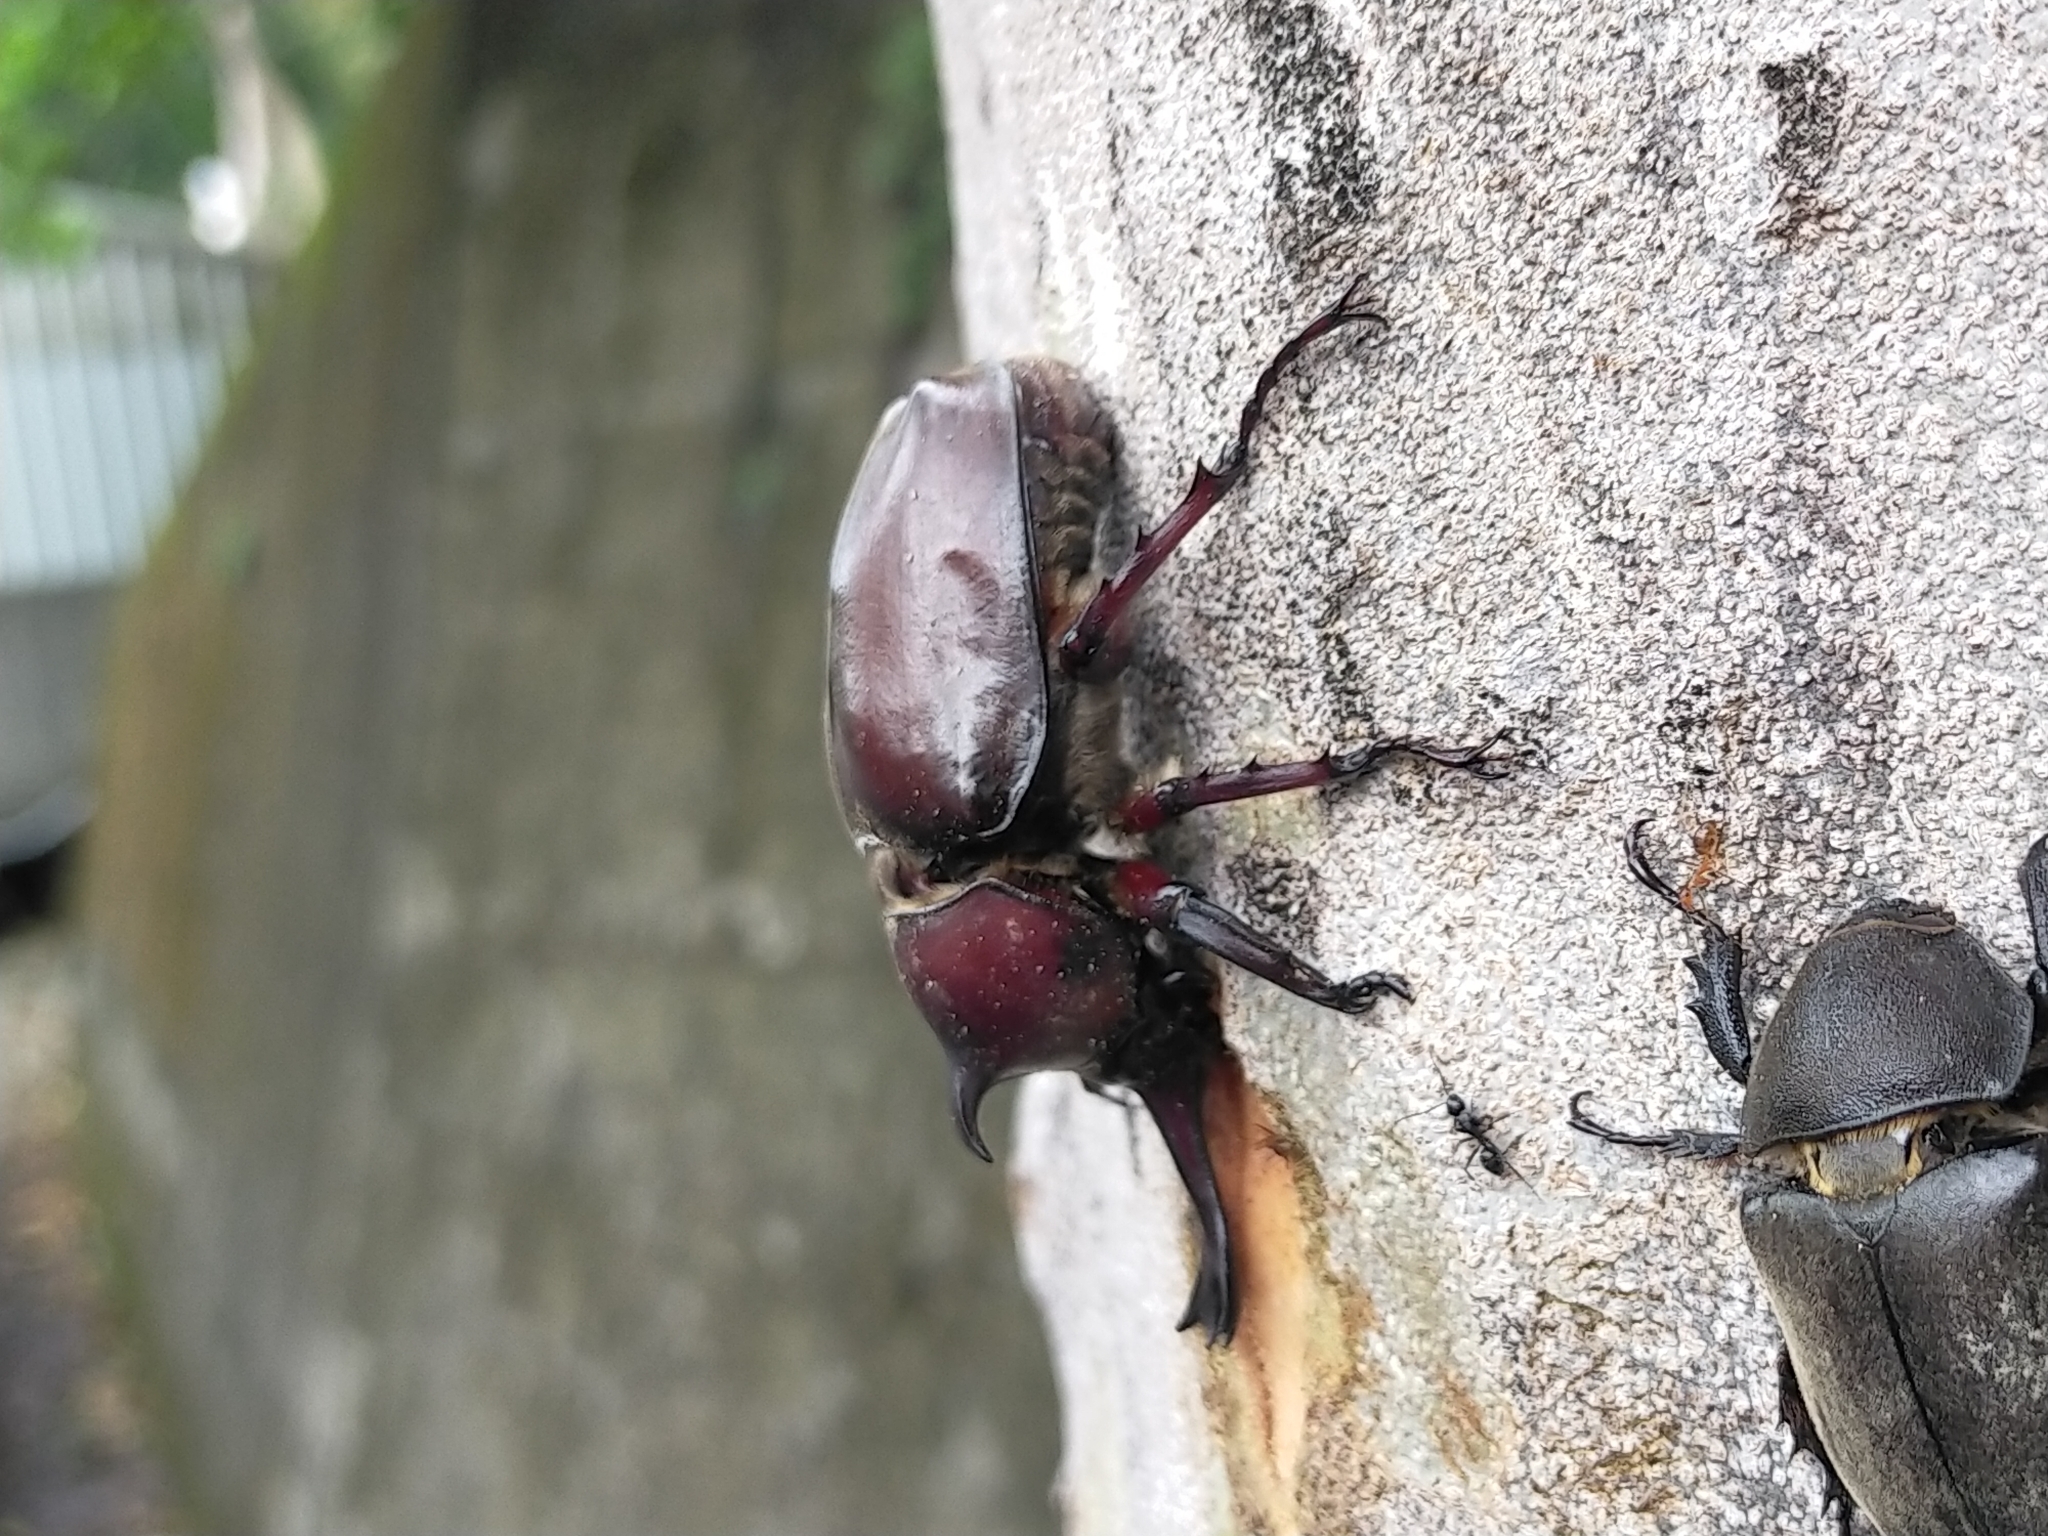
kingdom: Animalia
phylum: Arthropoda
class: Insecta
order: Coleoptera
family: Scarabaeidae
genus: Trypoxylus
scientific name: Trypoxylus dichotomus
